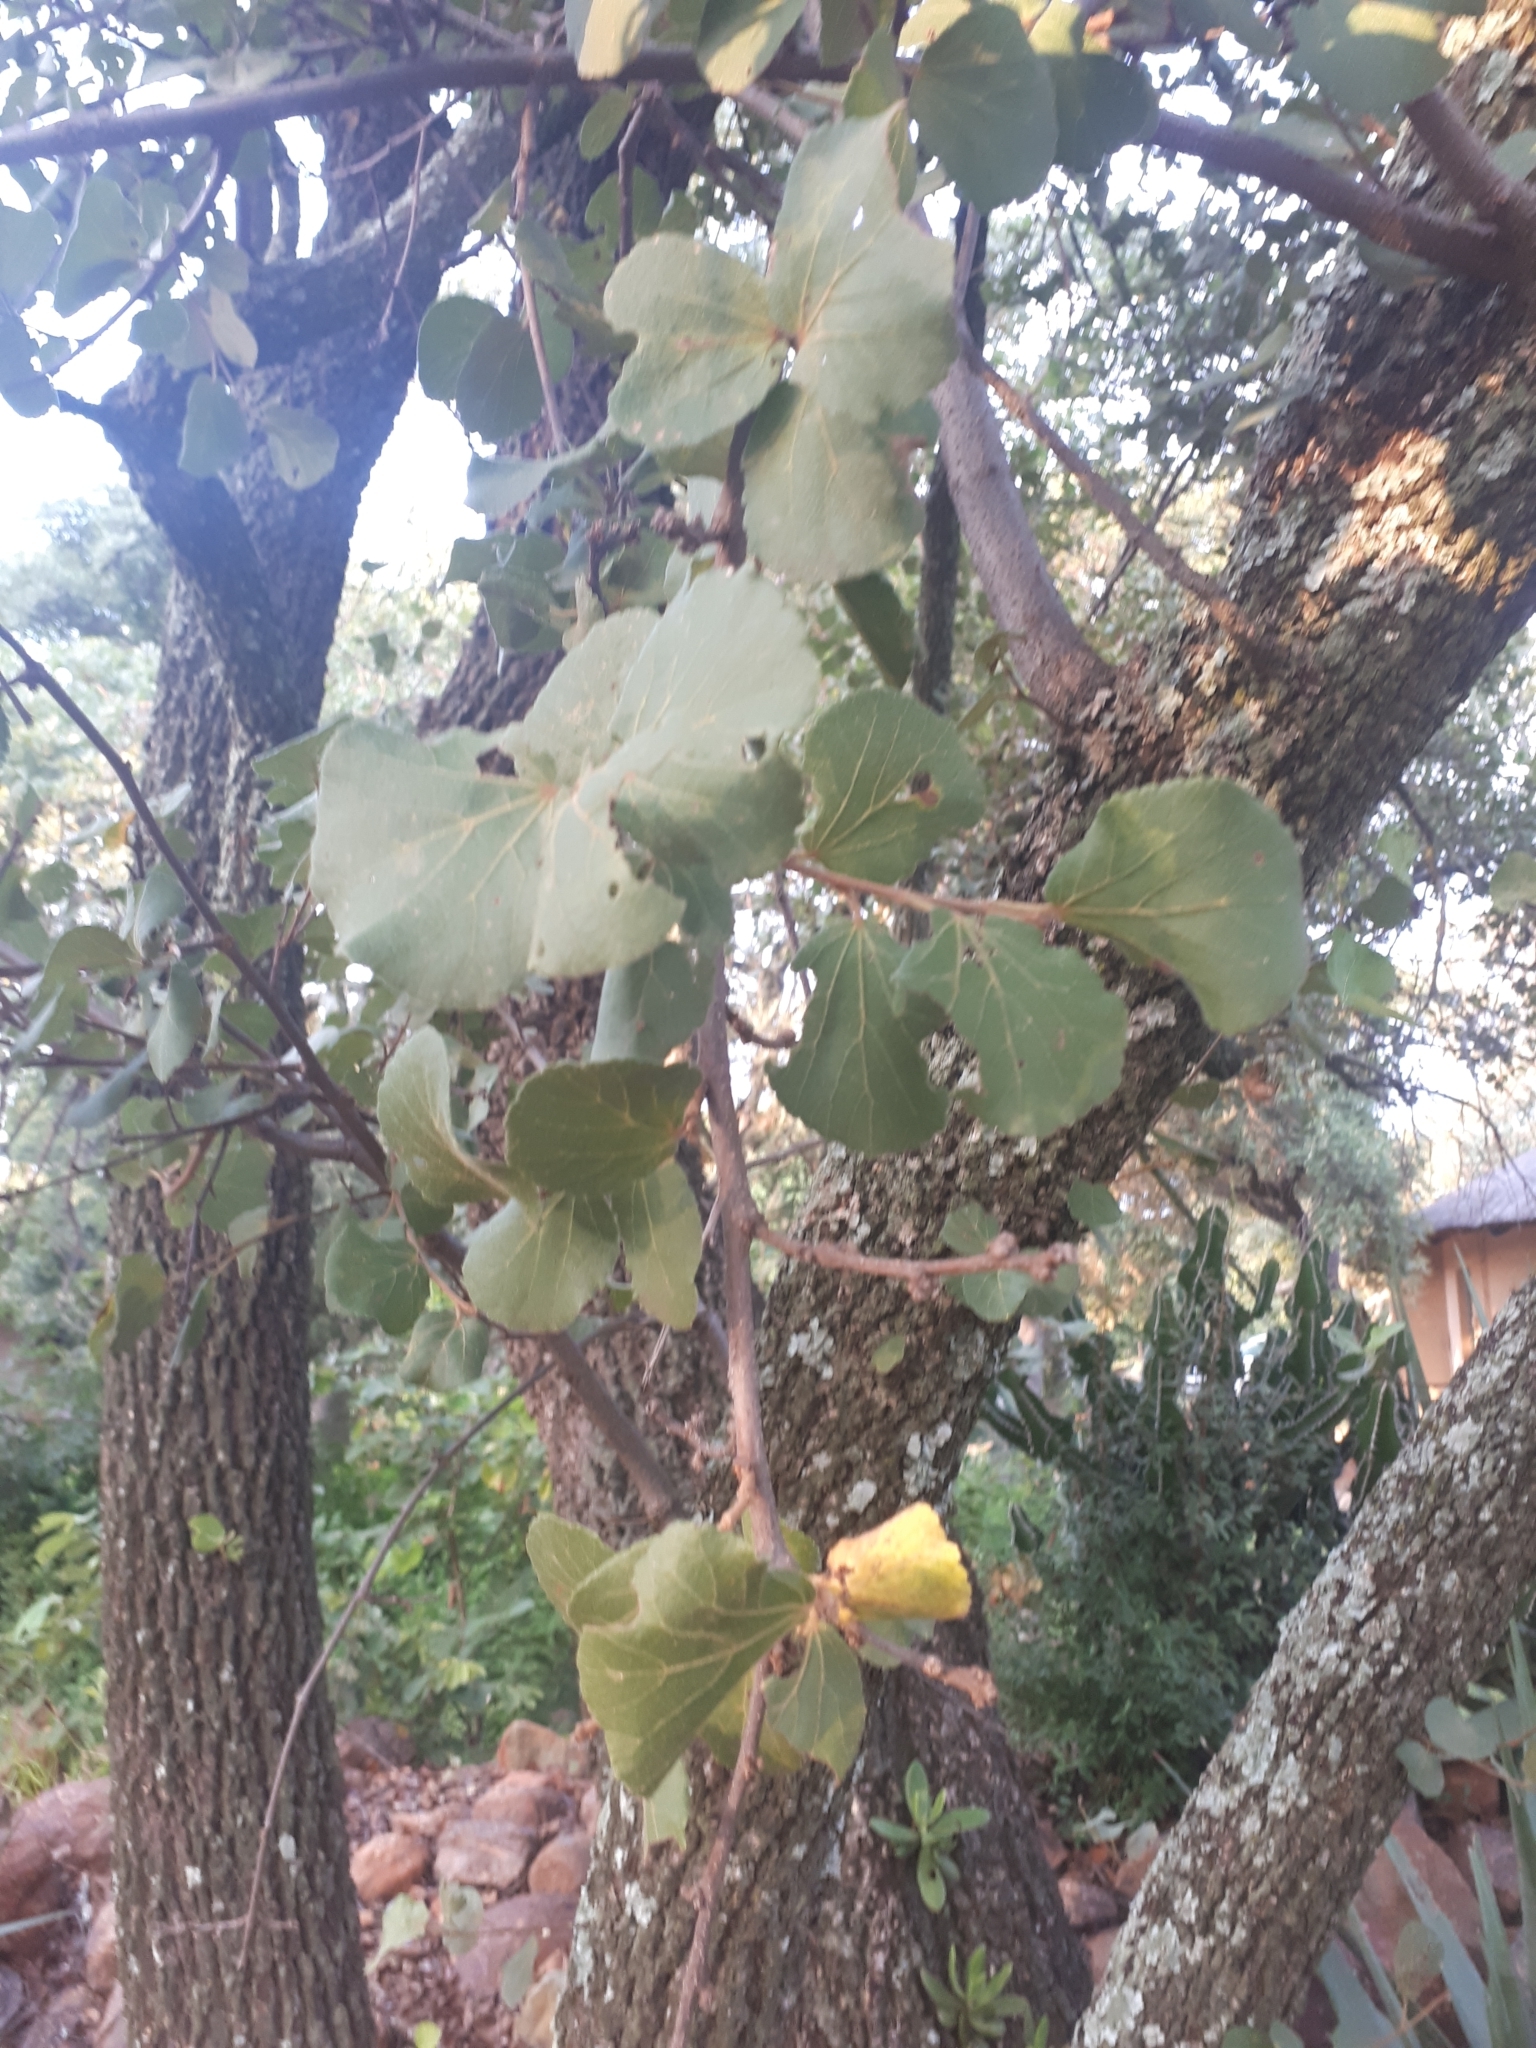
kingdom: Plantae
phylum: Tracheophyta
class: Magnoliopsida
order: Malvales
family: Malvaceae
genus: Dombeya
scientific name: Dombeya rotundifolia
